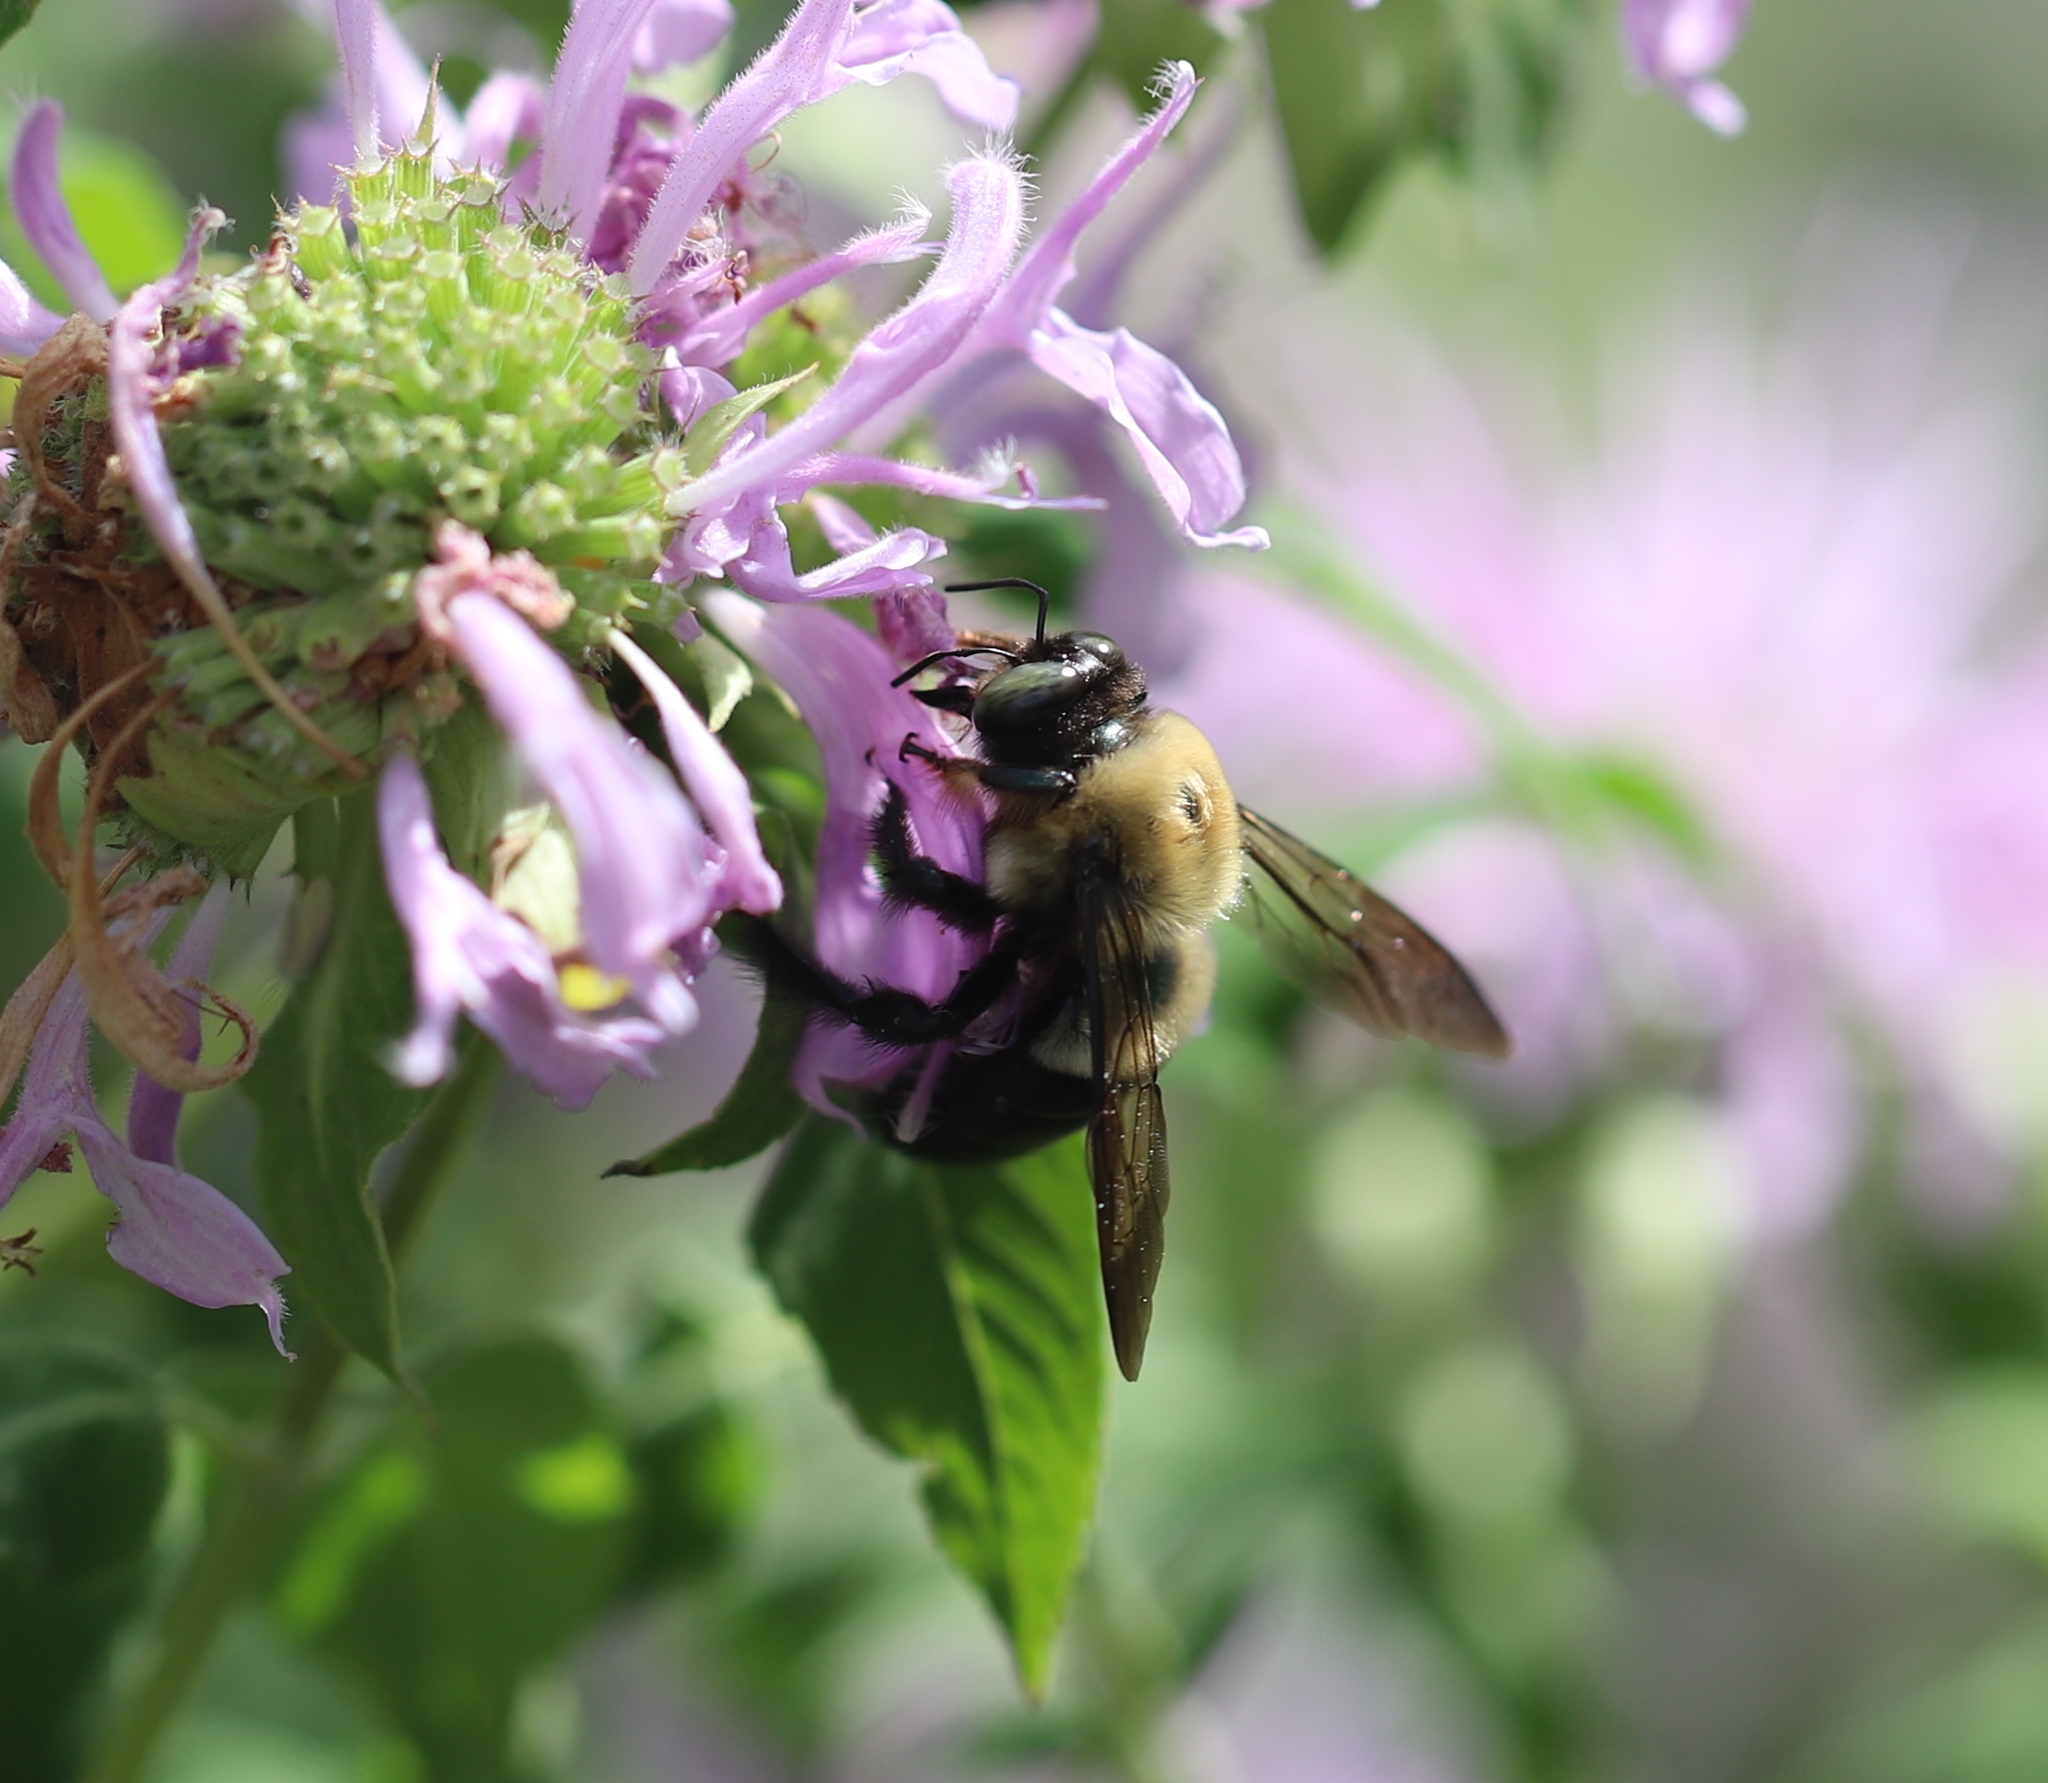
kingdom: Animalia
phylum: Arthropoda
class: Insecta
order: Hymenoptera
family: Apidae
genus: Xylocopa
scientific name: Xylocopa virginica
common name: Carpenter bee
